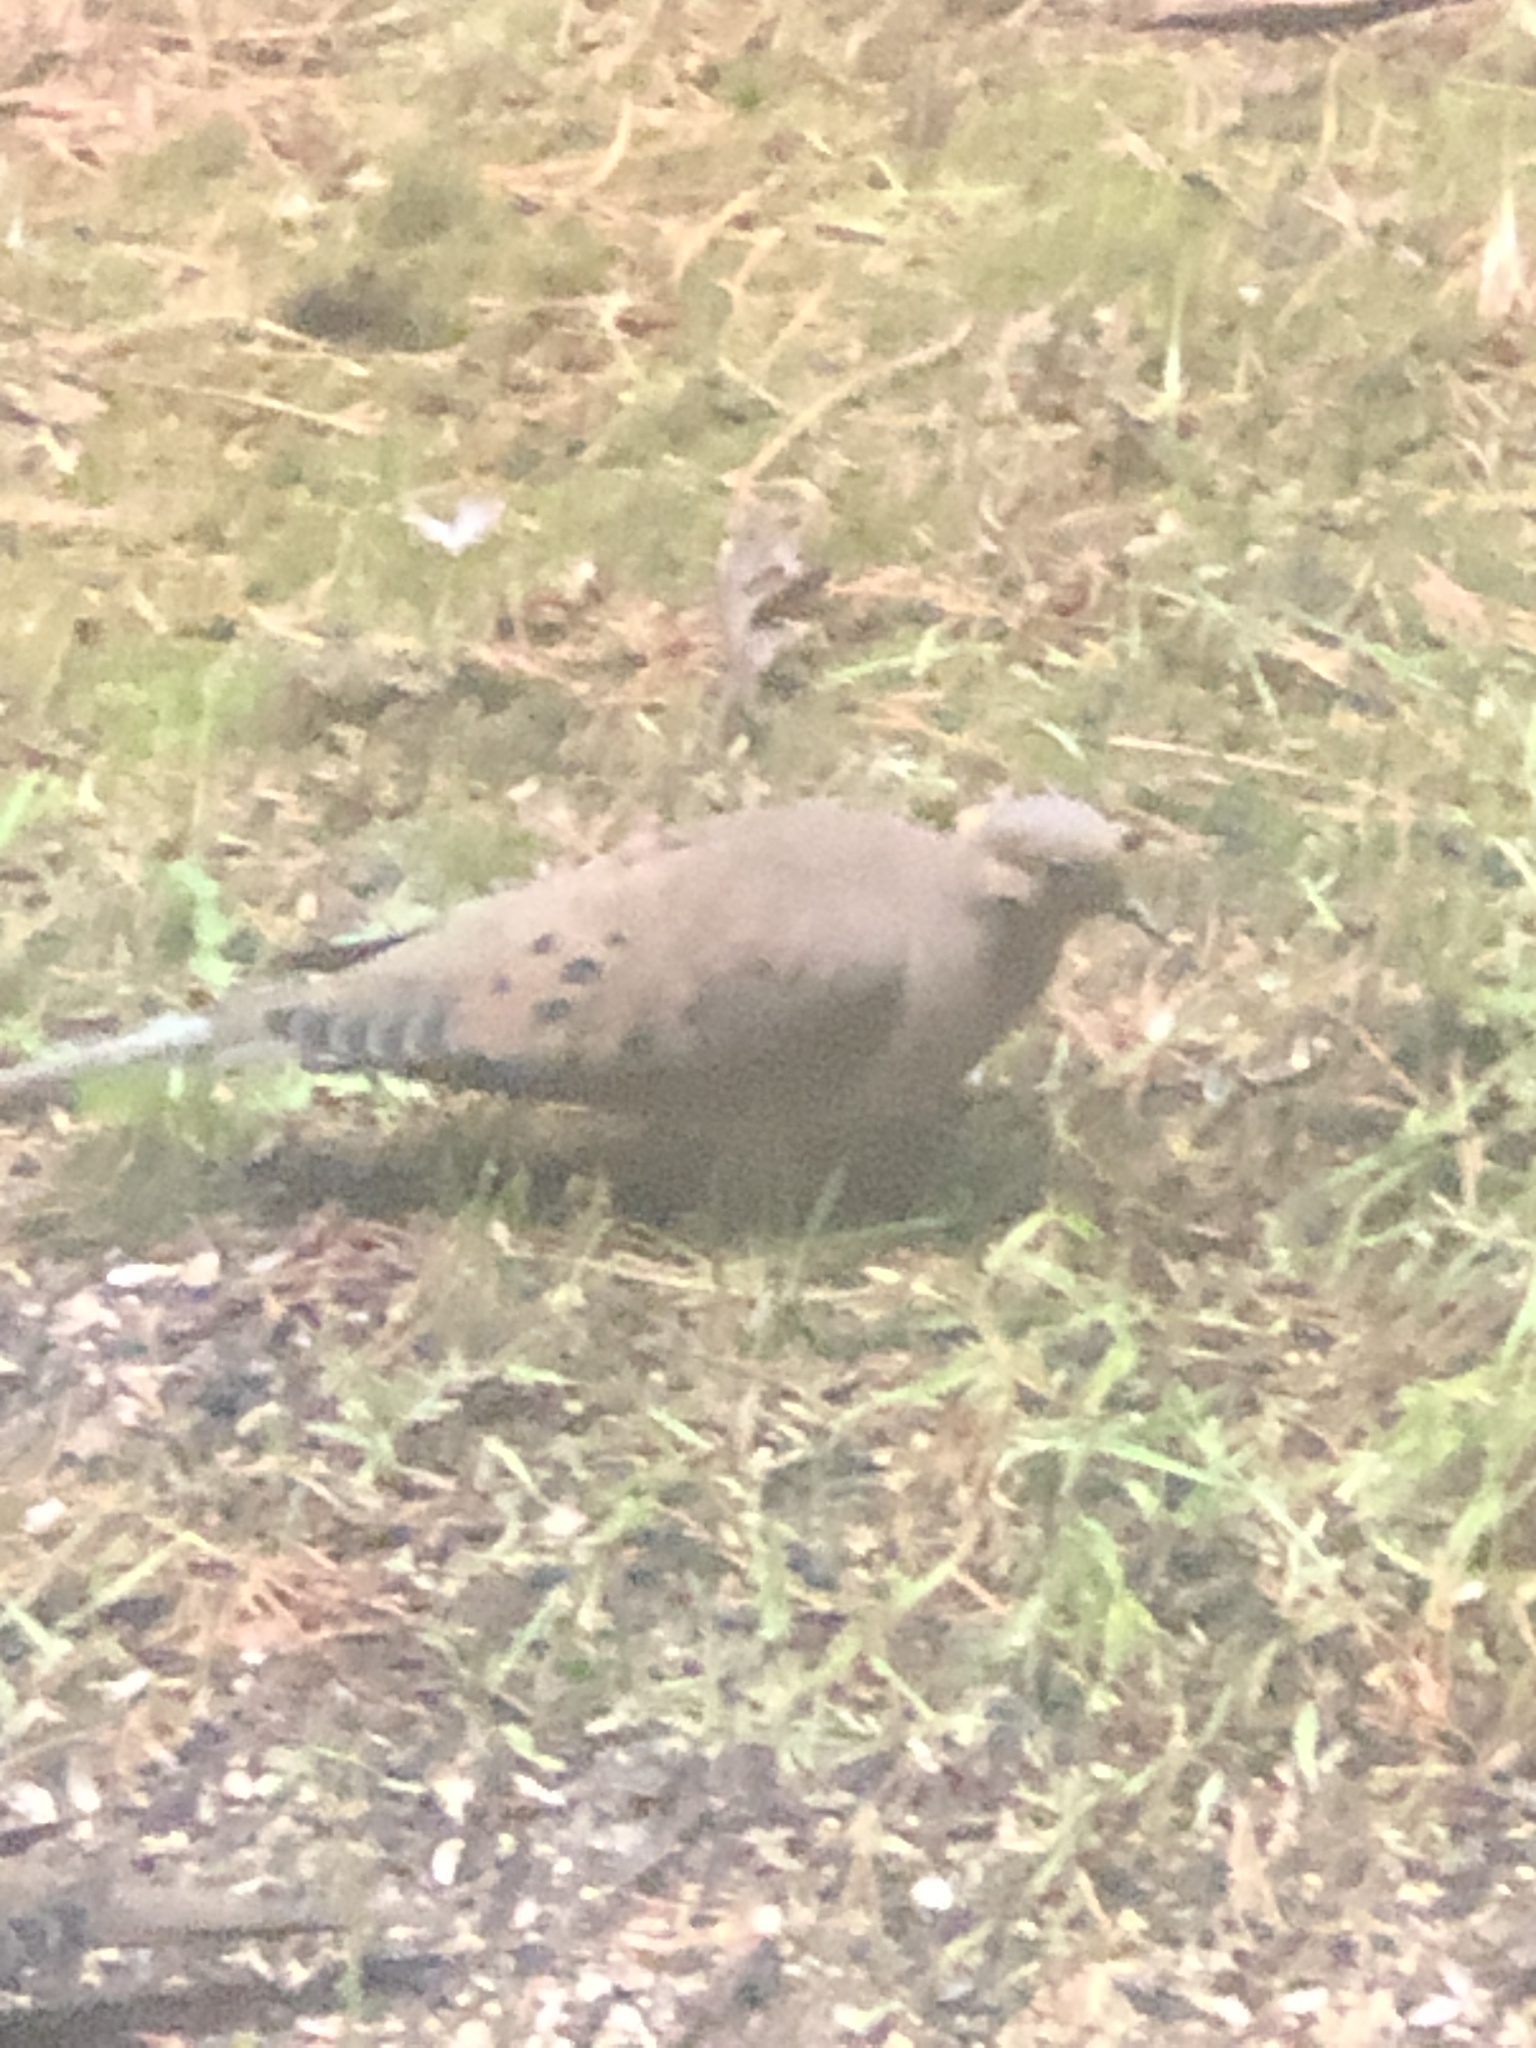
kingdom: Animalia
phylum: Chordata
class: Aves
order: Columbiformes
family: Columbidae
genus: Zenaida
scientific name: Zenaida macroura
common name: Mourning dove
